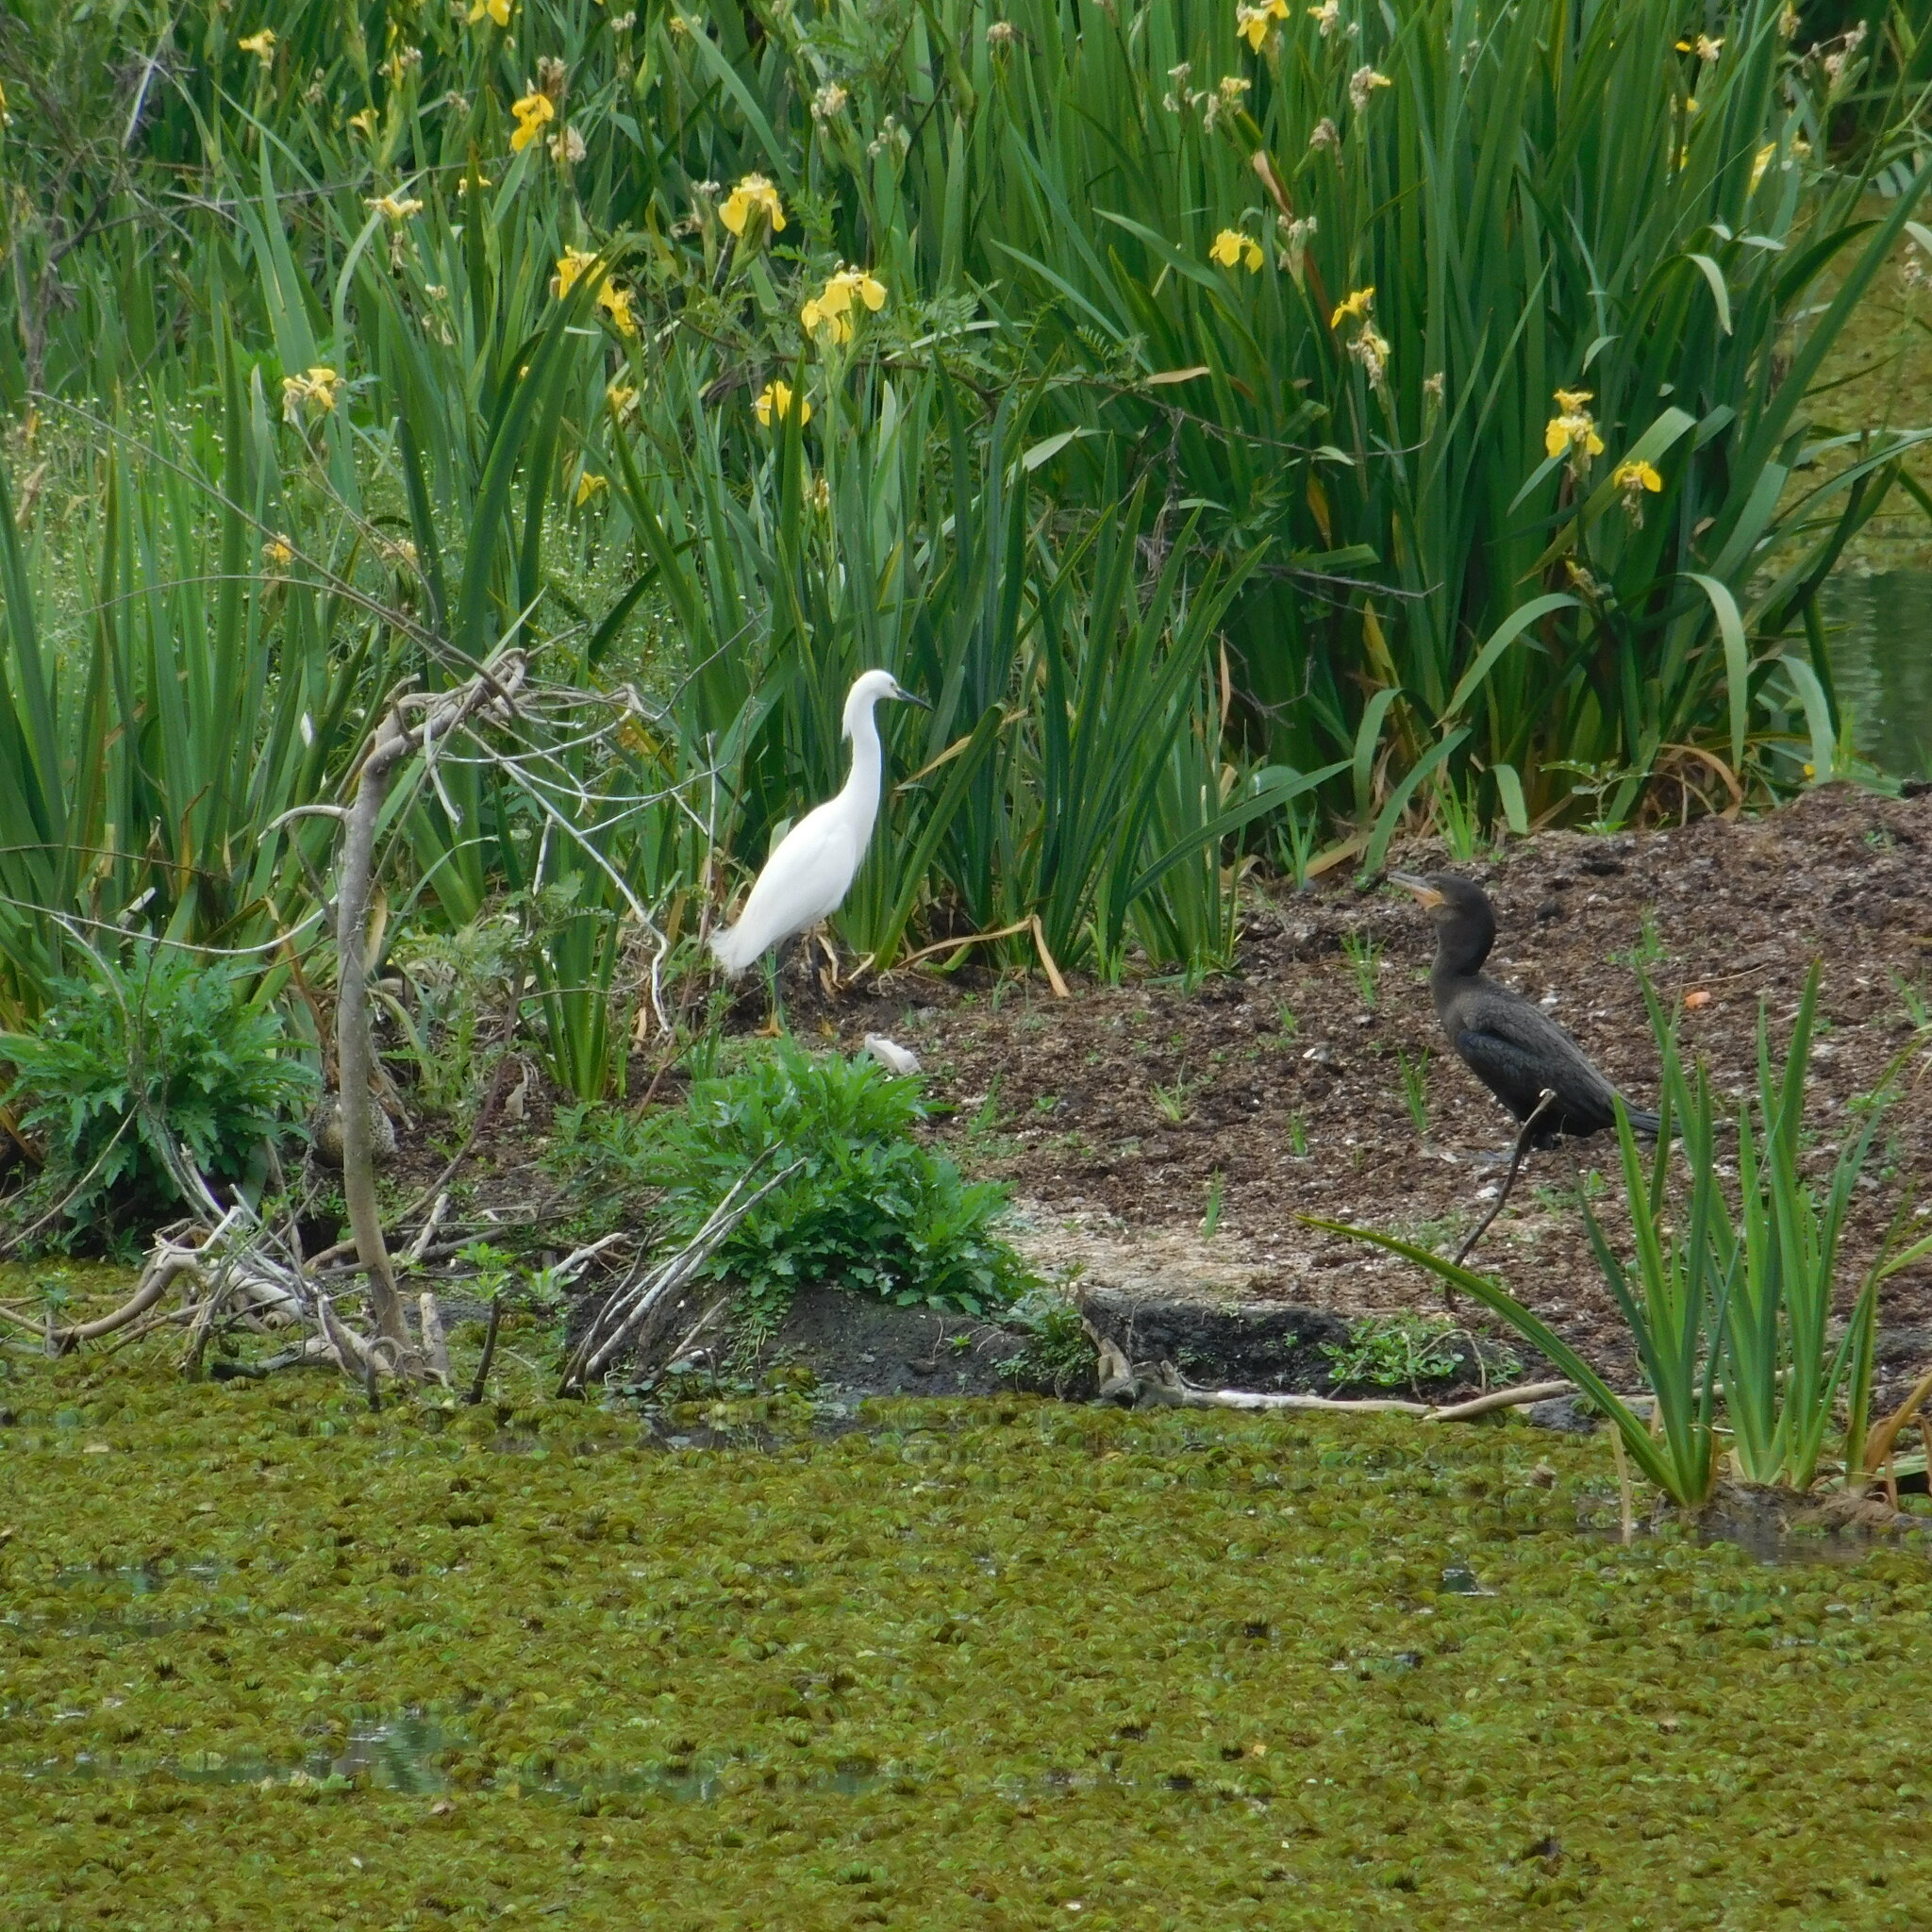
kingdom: Animalia
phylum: Chordata
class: Aves
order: Pelecaniformes
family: Ardeidae
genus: Egretta
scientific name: Egretta thula
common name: Snowy egret
